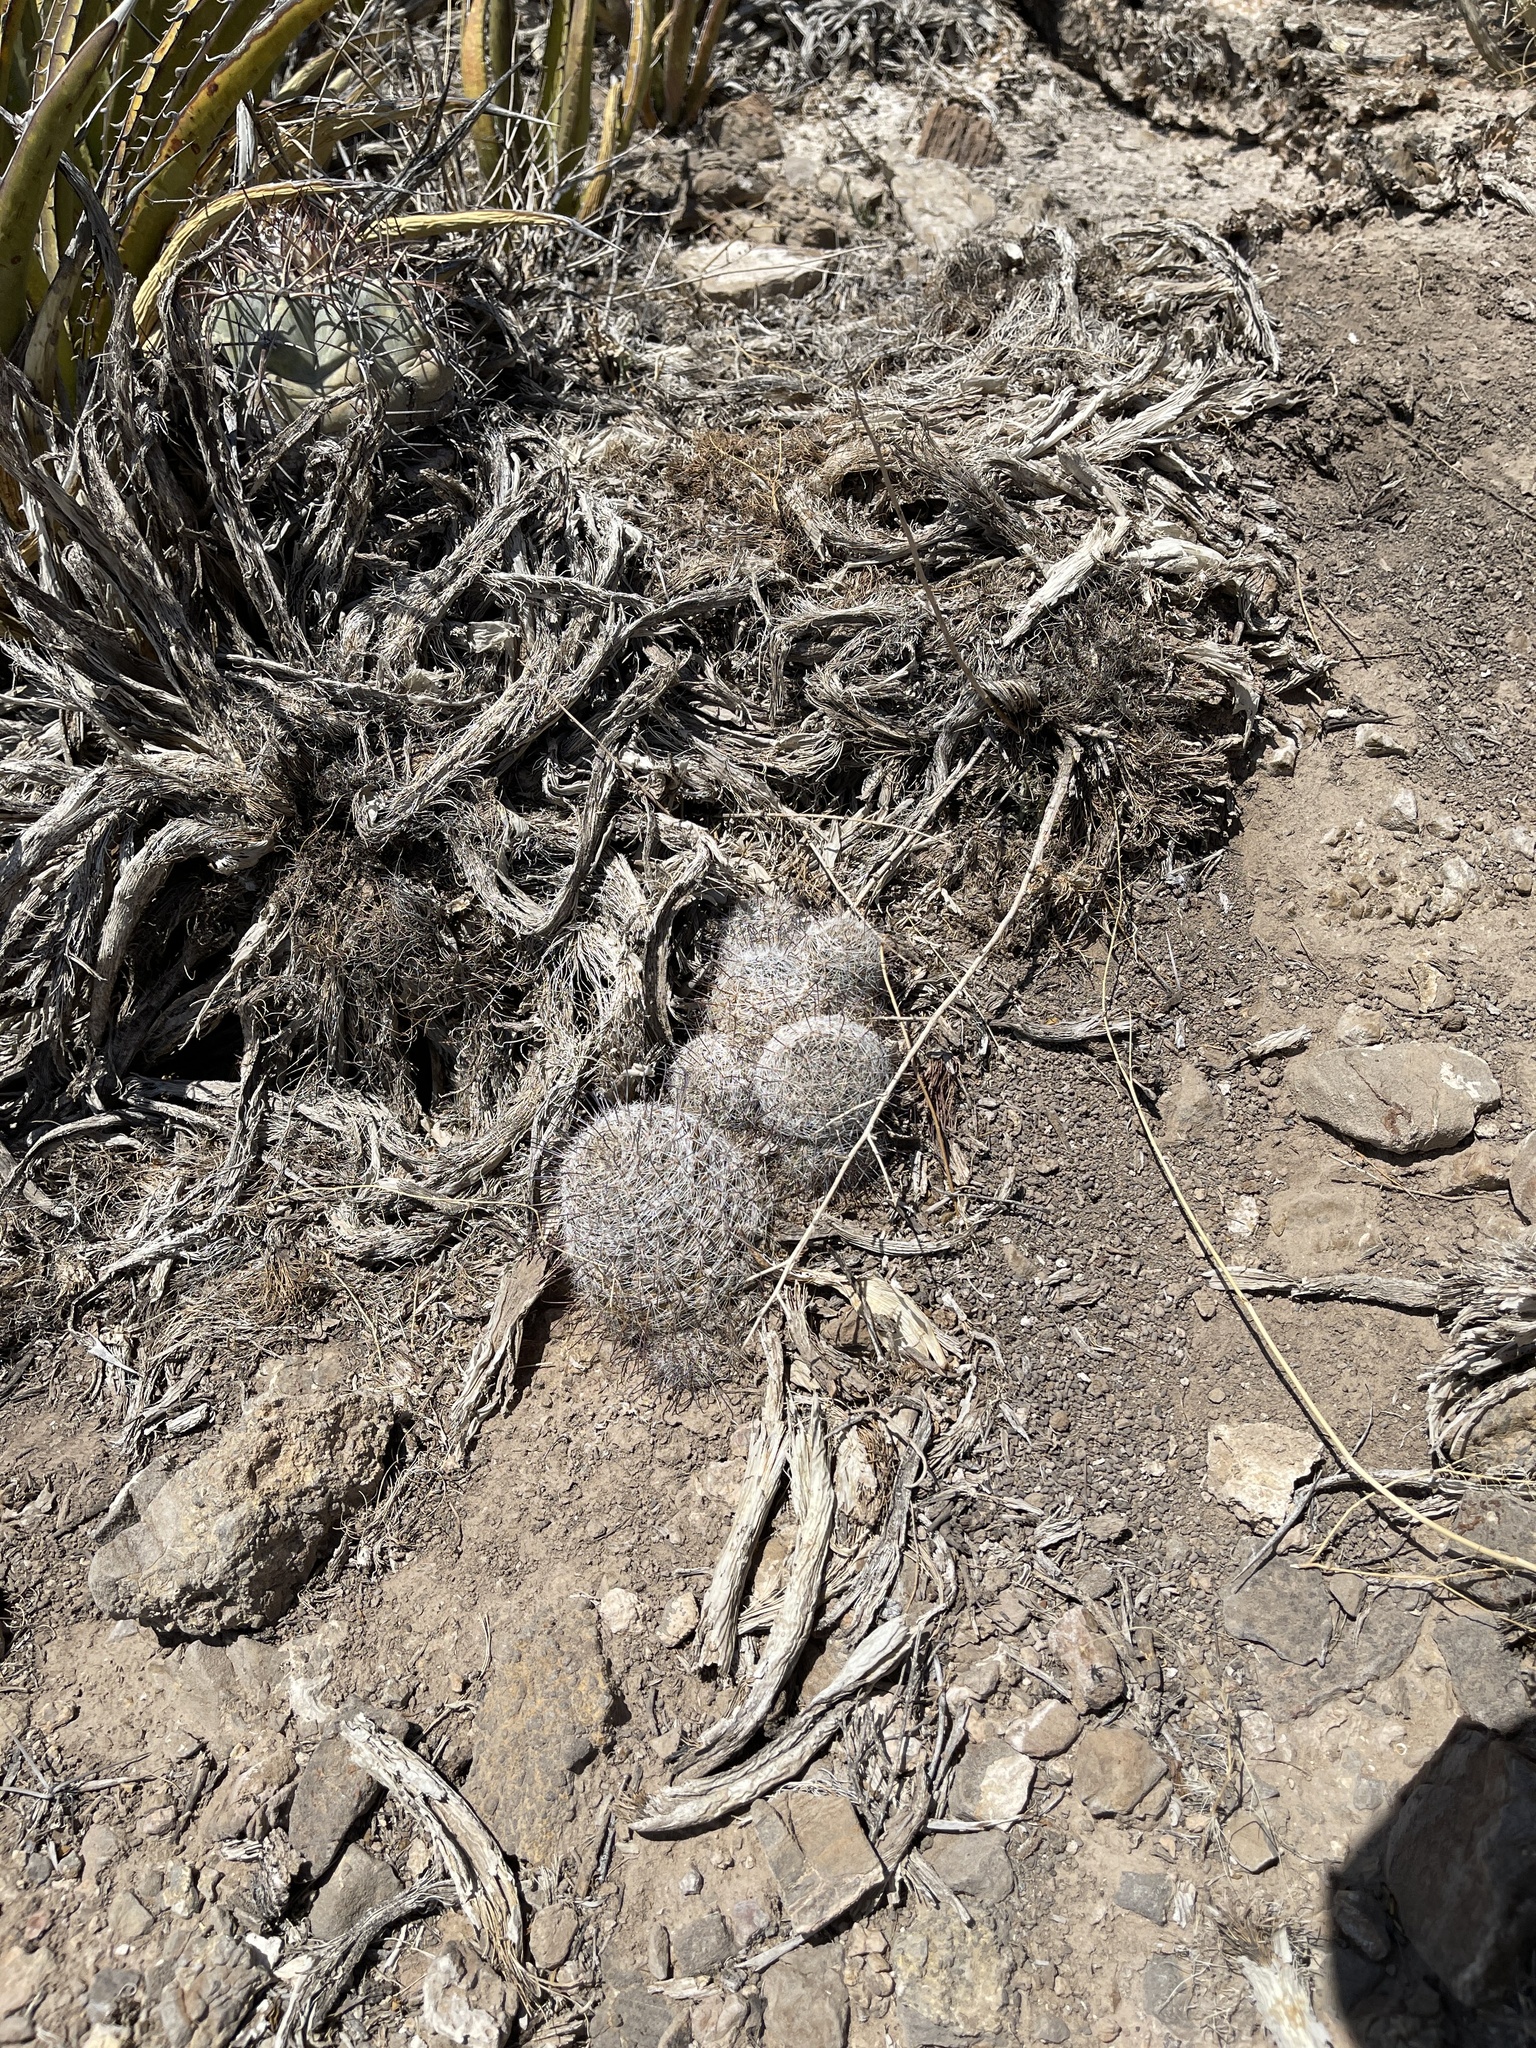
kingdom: Plantae
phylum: Tracheophyta
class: Magnoliopsida
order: Caryophyllales
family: Cactaceae
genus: Cochemiea
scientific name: Cochemiea grahamii
